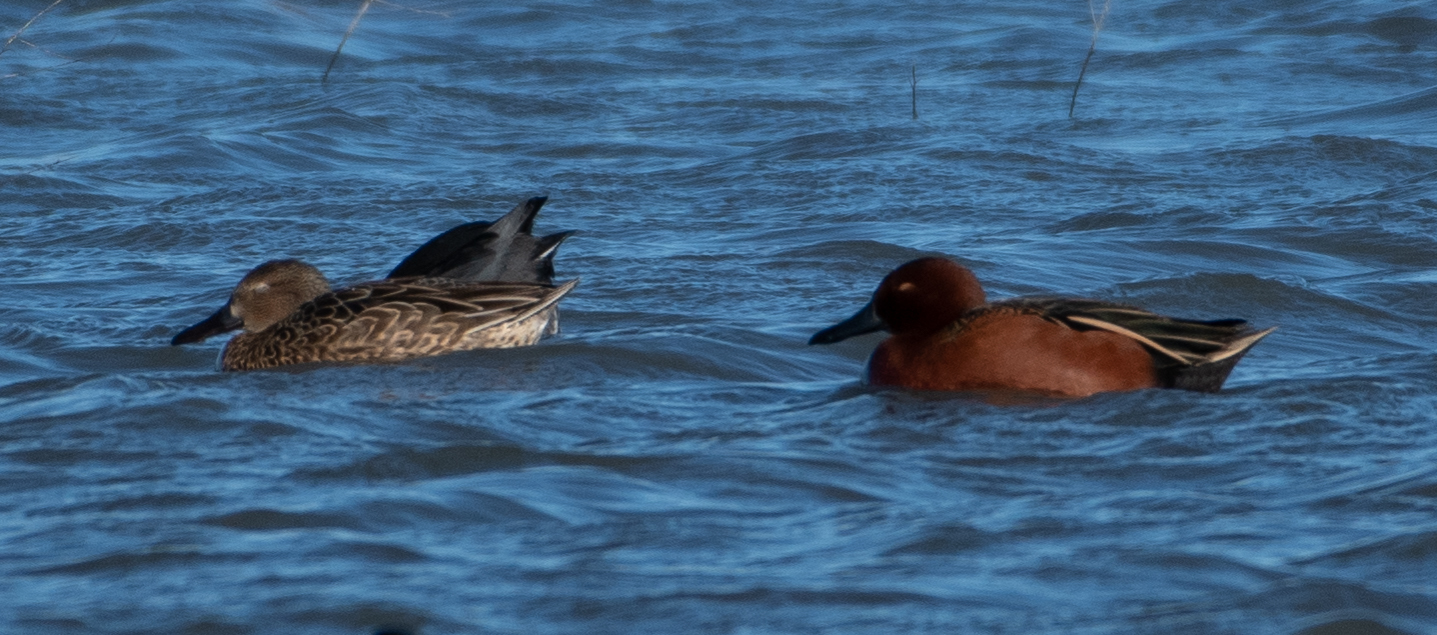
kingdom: Animalia
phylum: Chordata
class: Aves
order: Anseriformes
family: Anatidae
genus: Spatula
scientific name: Spatula cyanoptera
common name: Cinnamon teal
